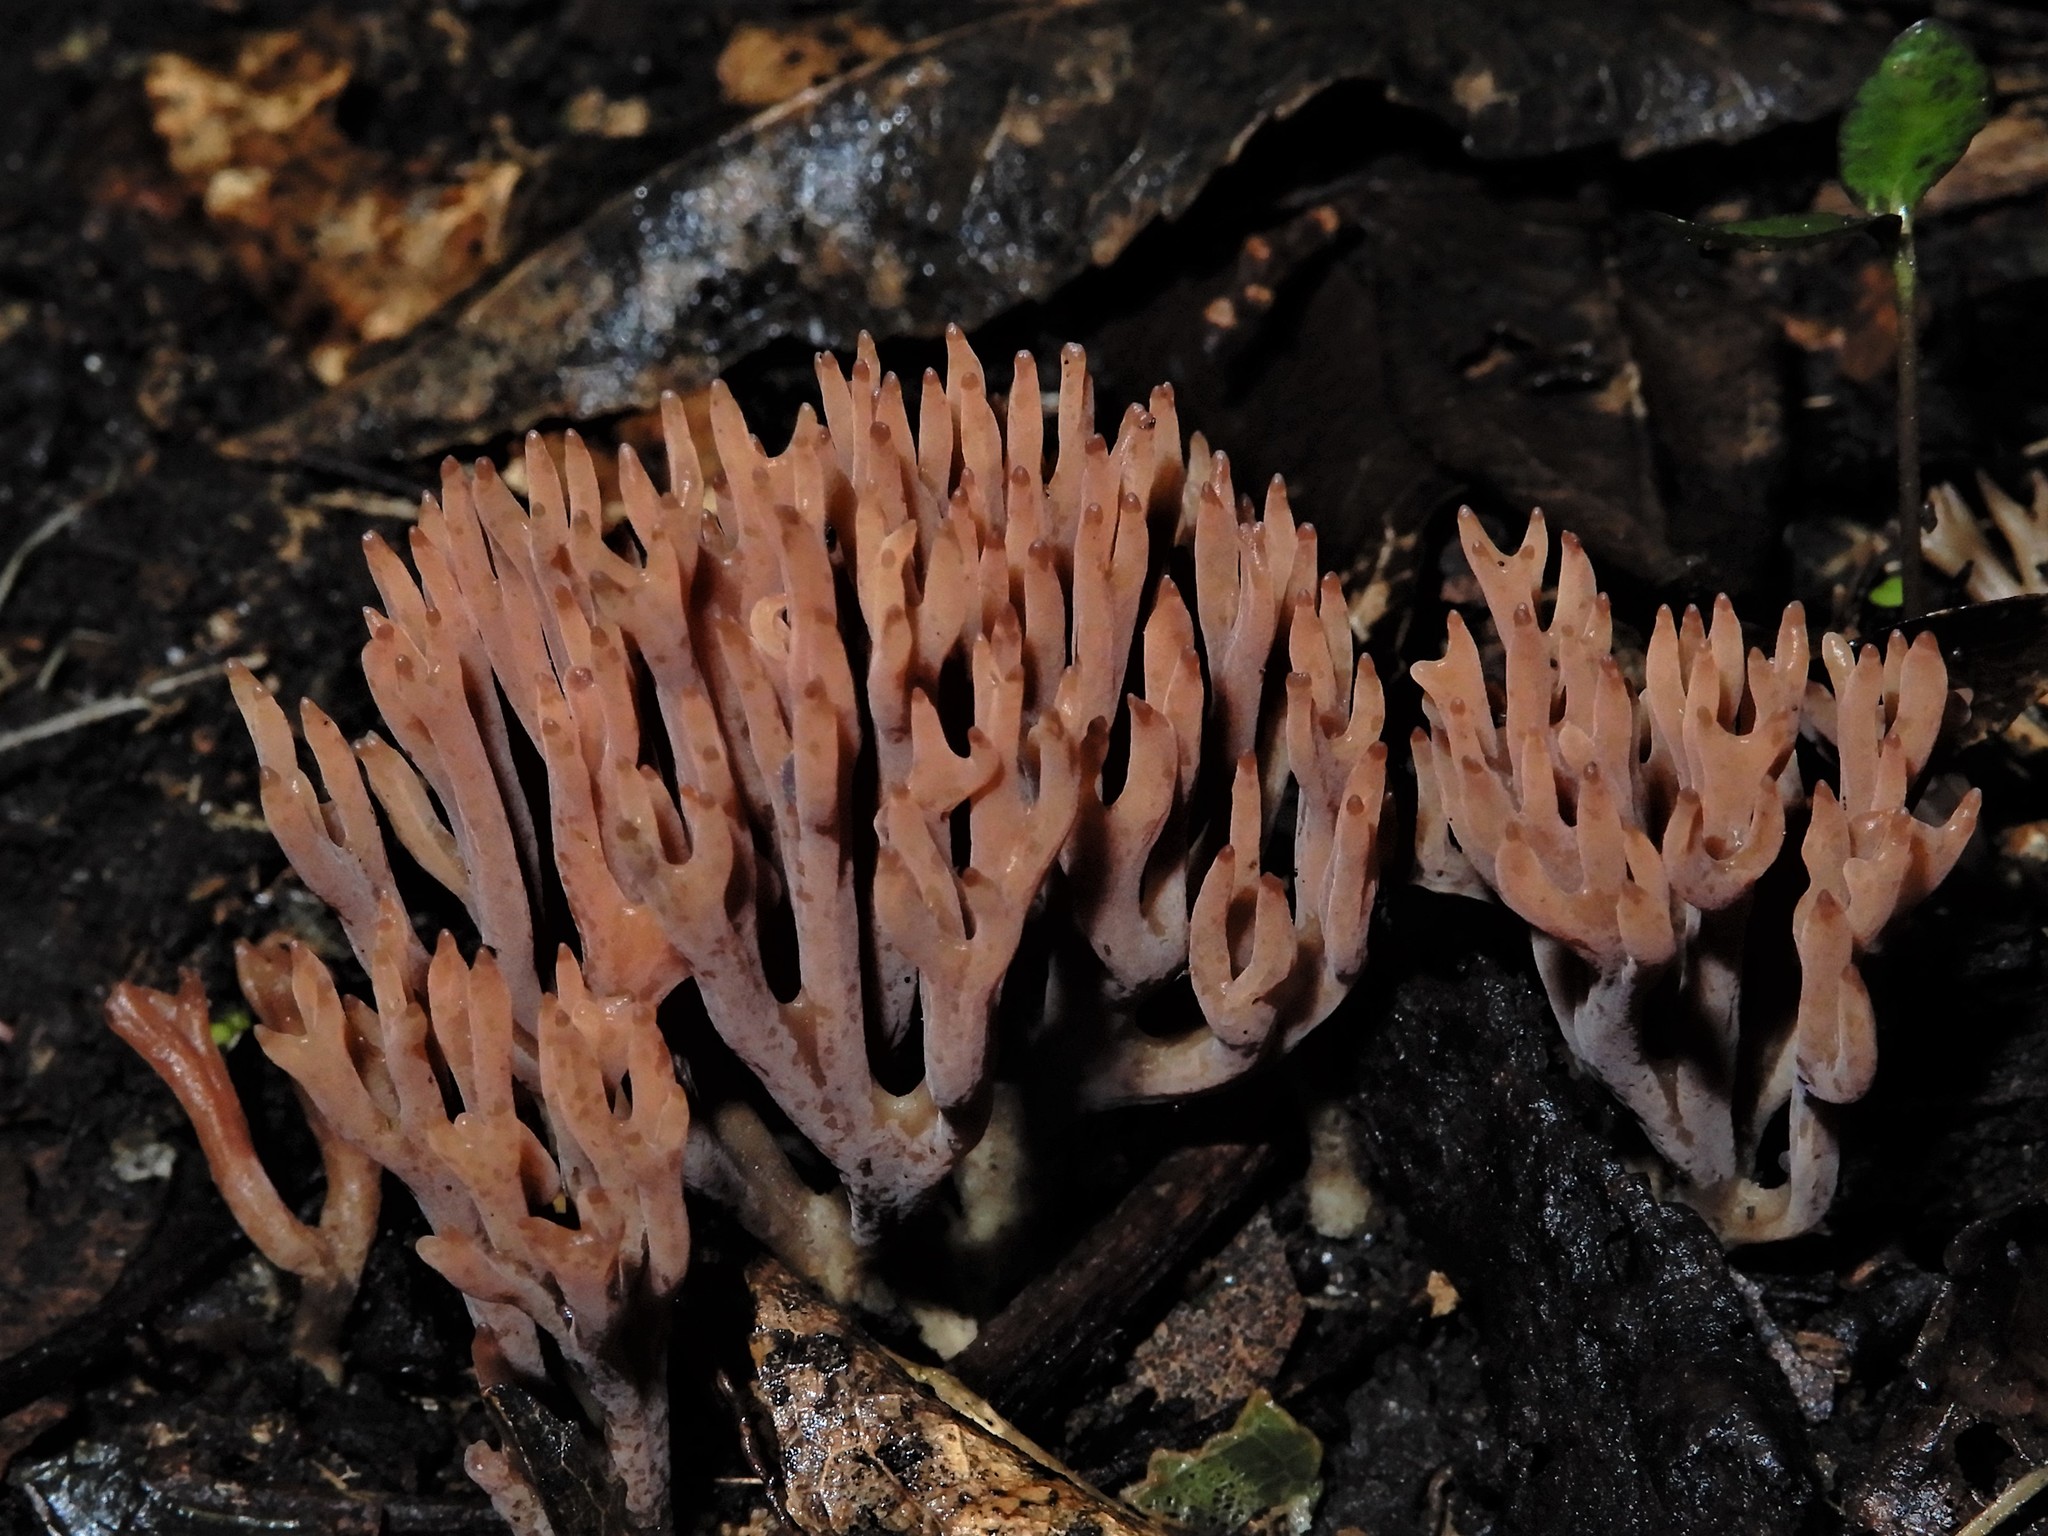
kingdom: Fungi
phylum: Basidiomycota
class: Agaricomycetes
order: Agaricales
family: Clavariaceae
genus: Ramariopsis
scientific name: Ramariopsis
